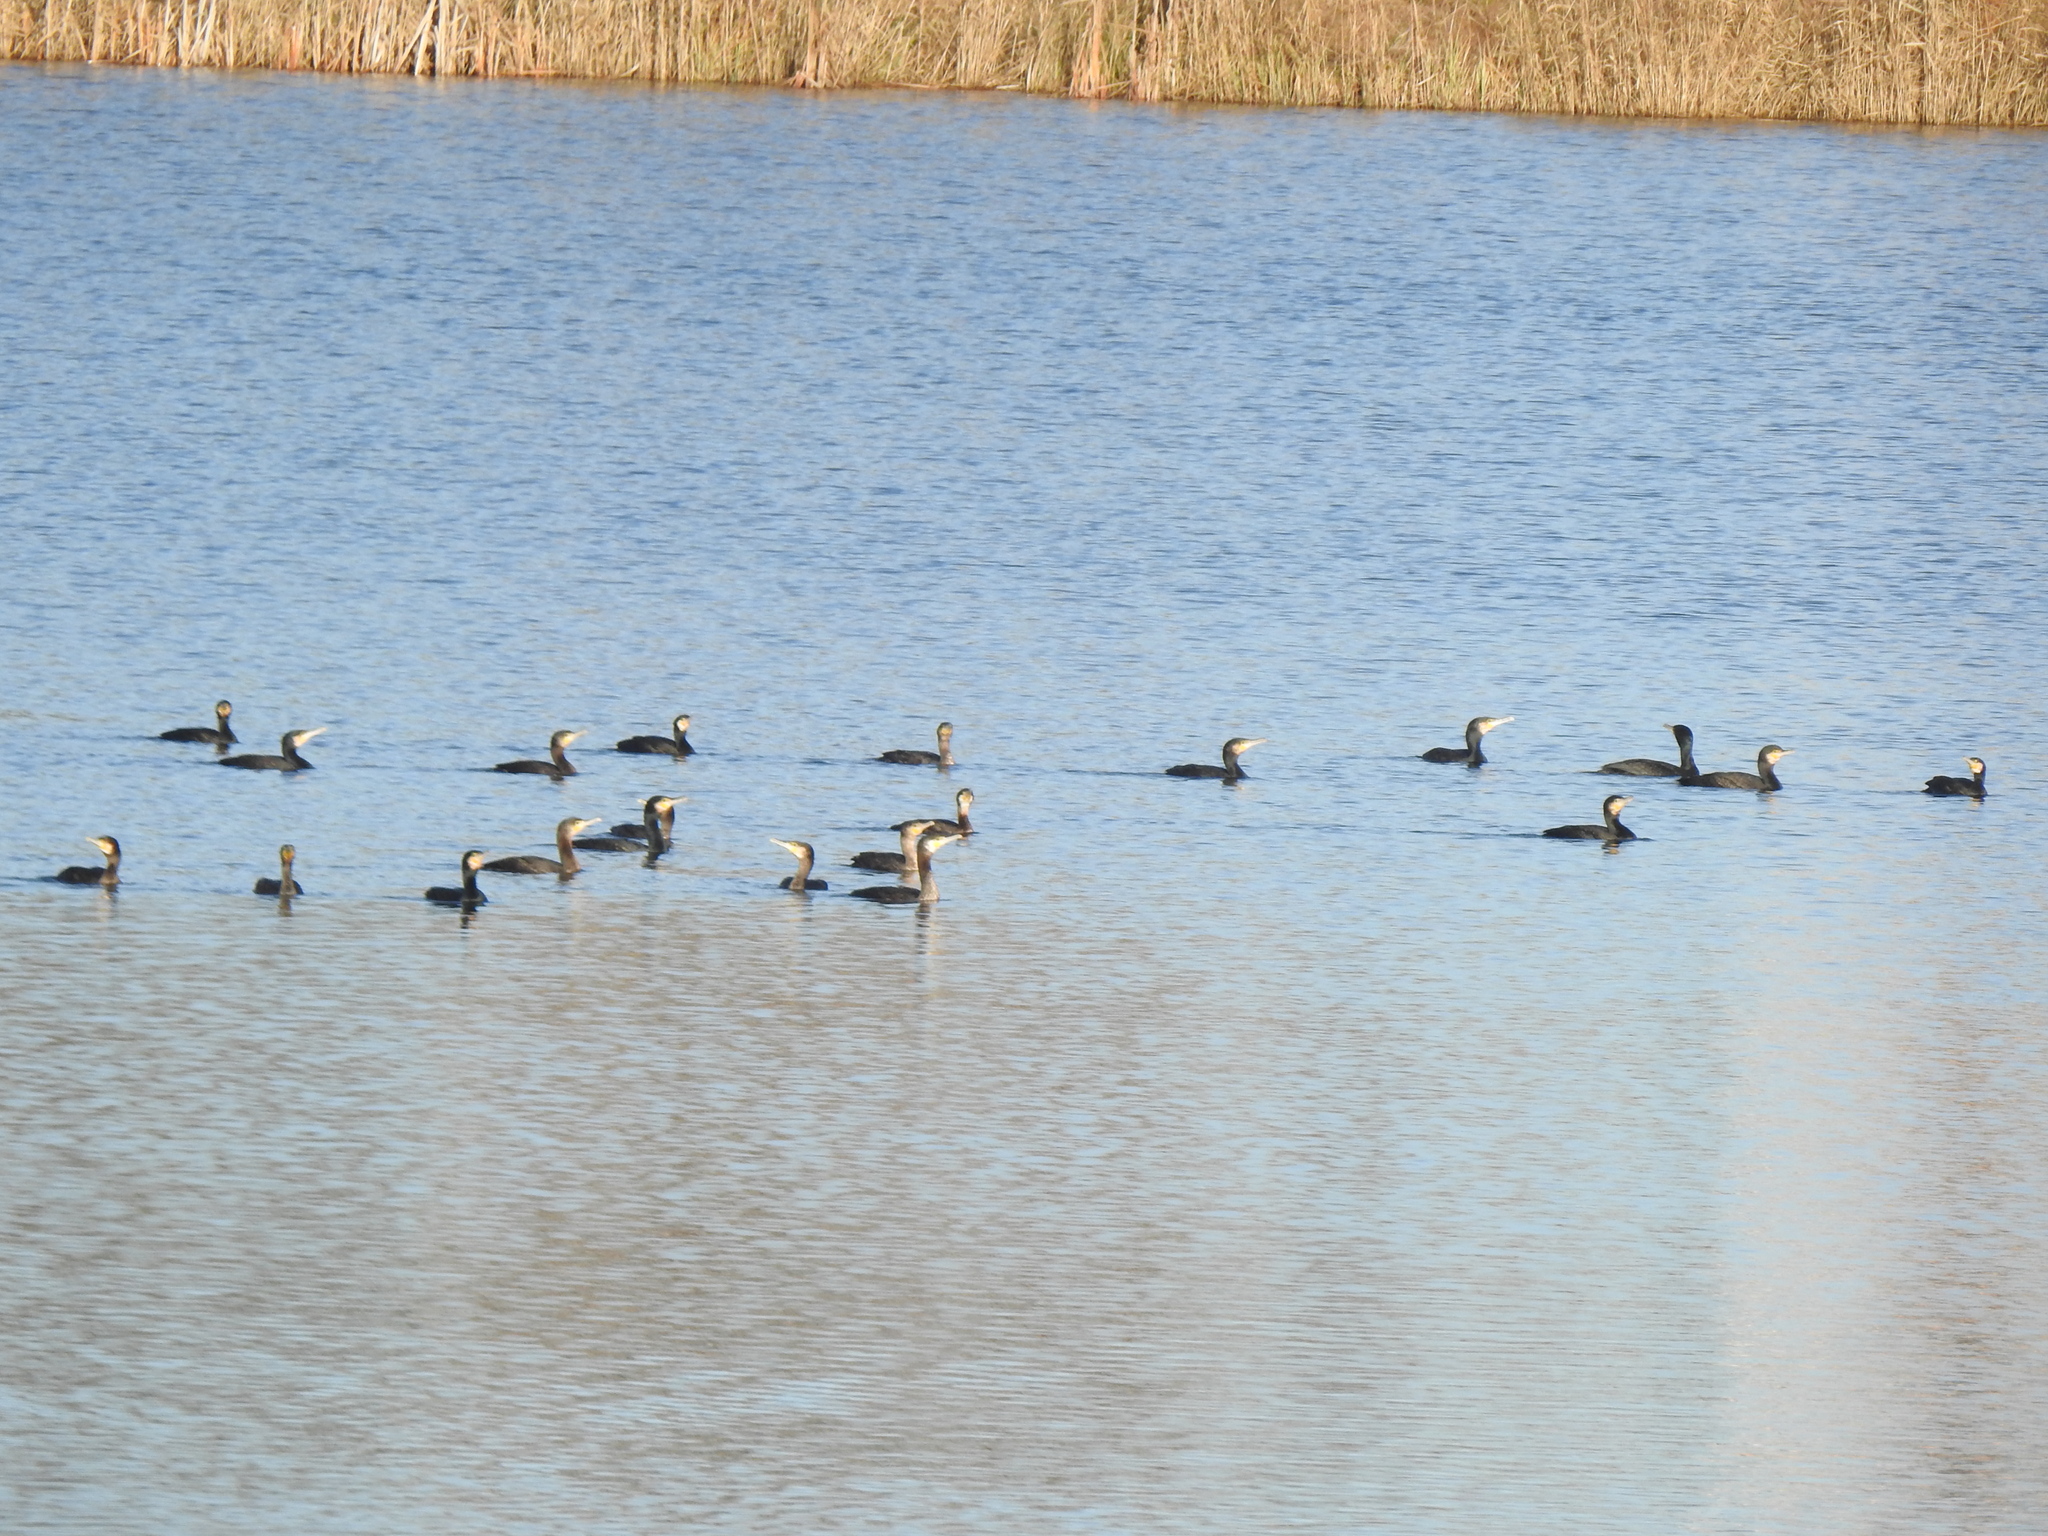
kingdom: Animalia
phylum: Chordata
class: Aves
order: Suliformes
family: Phalacrocoracidae
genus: Phalacrocorax
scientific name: Phalacrocorax carbo
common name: Great cormorant
